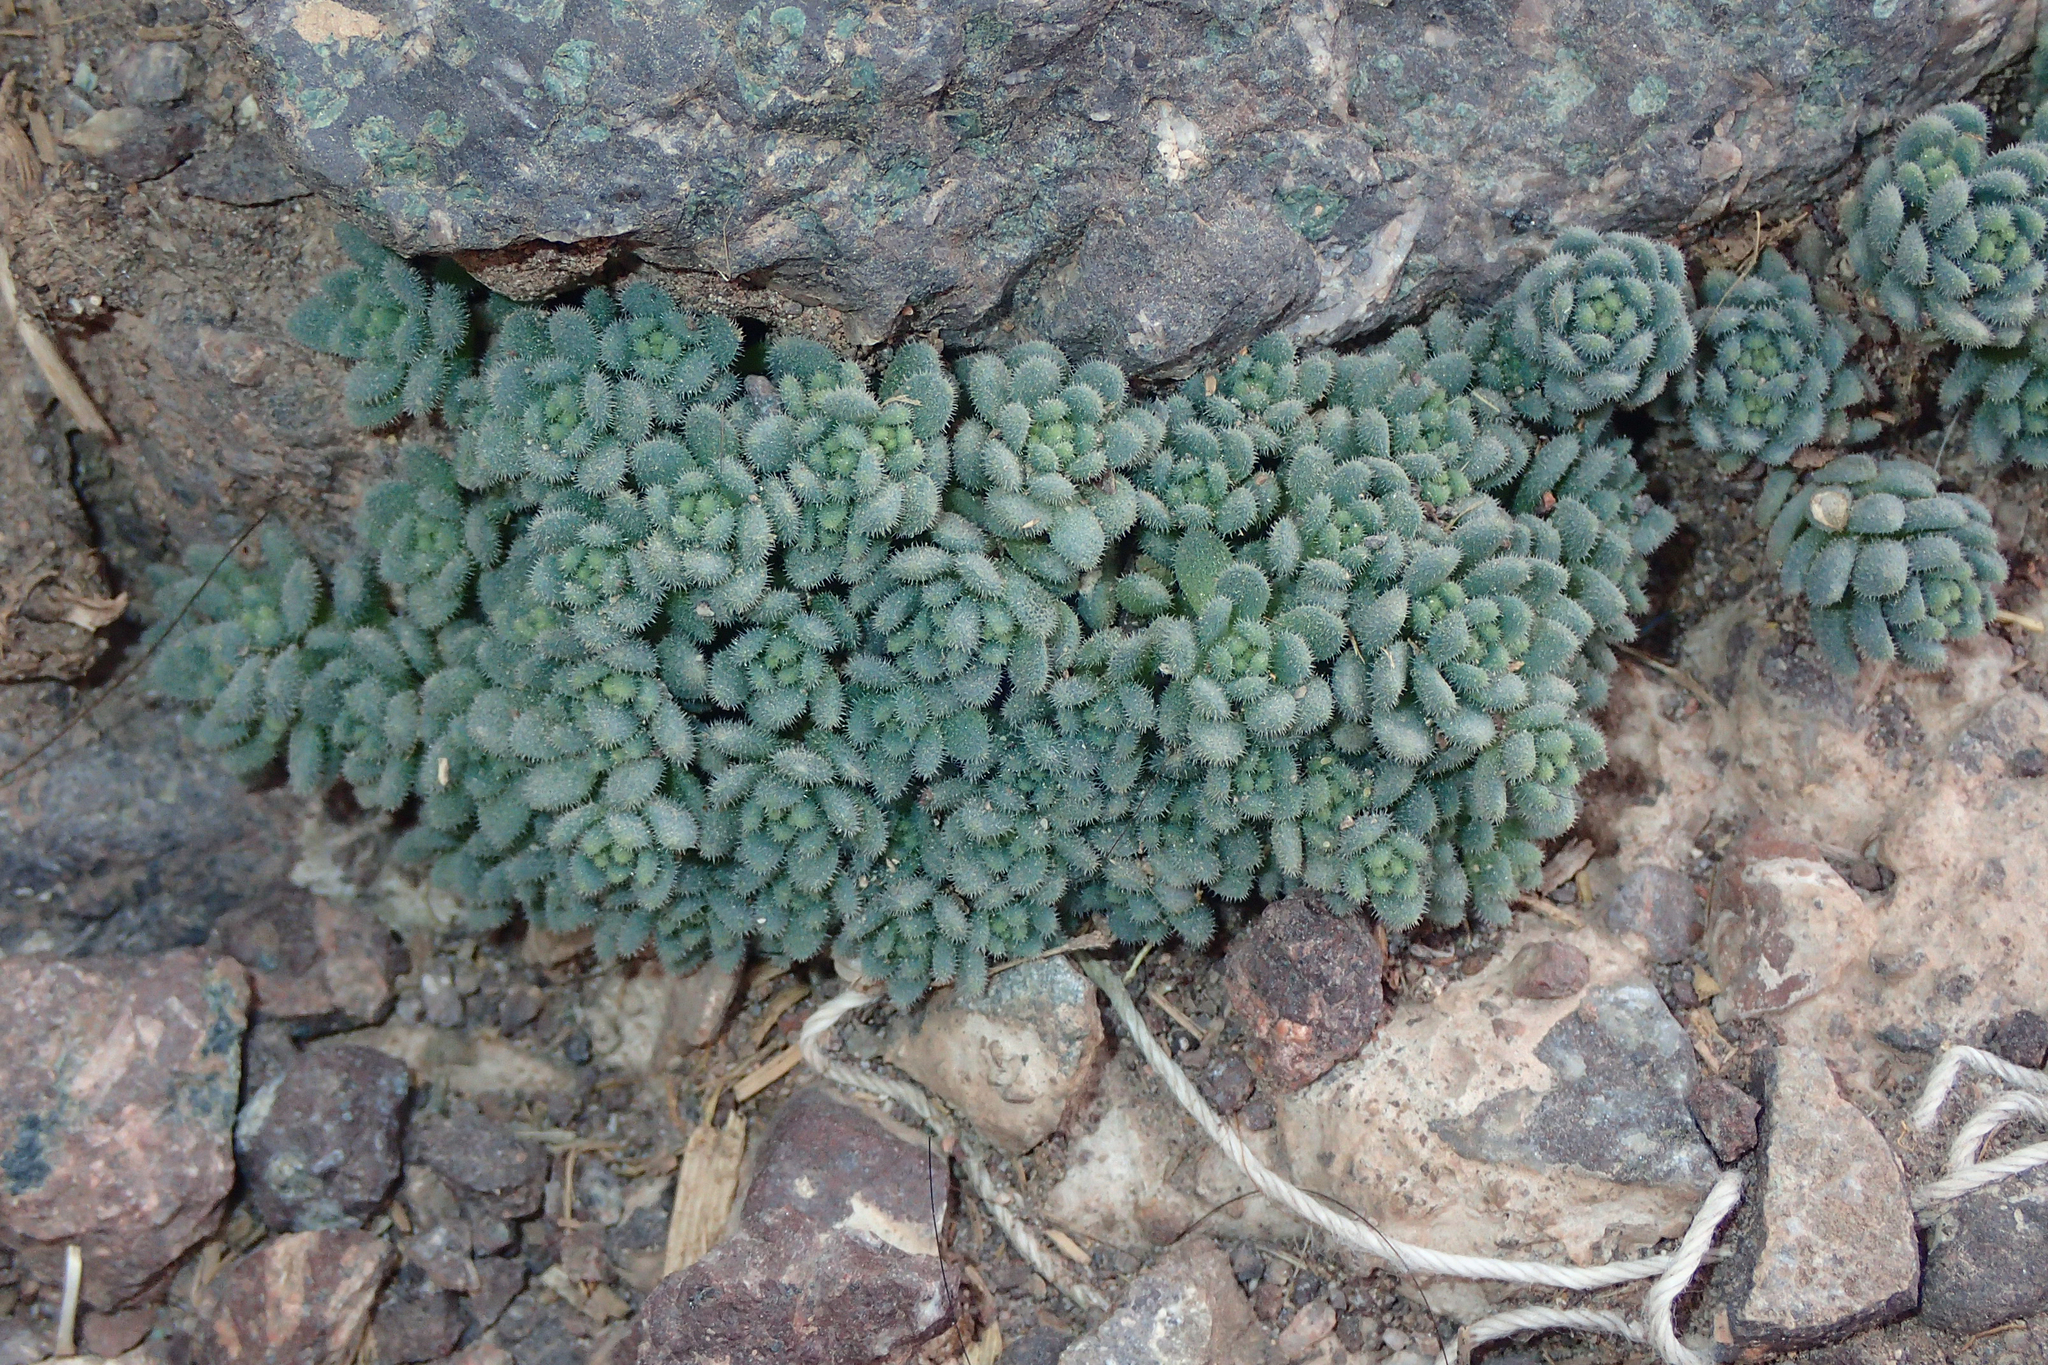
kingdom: Plantae
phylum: Tracheophyta
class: Magnoliopsida
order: Saxifragales
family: Crassulaceae
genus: Sedum
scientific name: Sedum dasyphyllum
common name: Thick-leaf stonecrop
